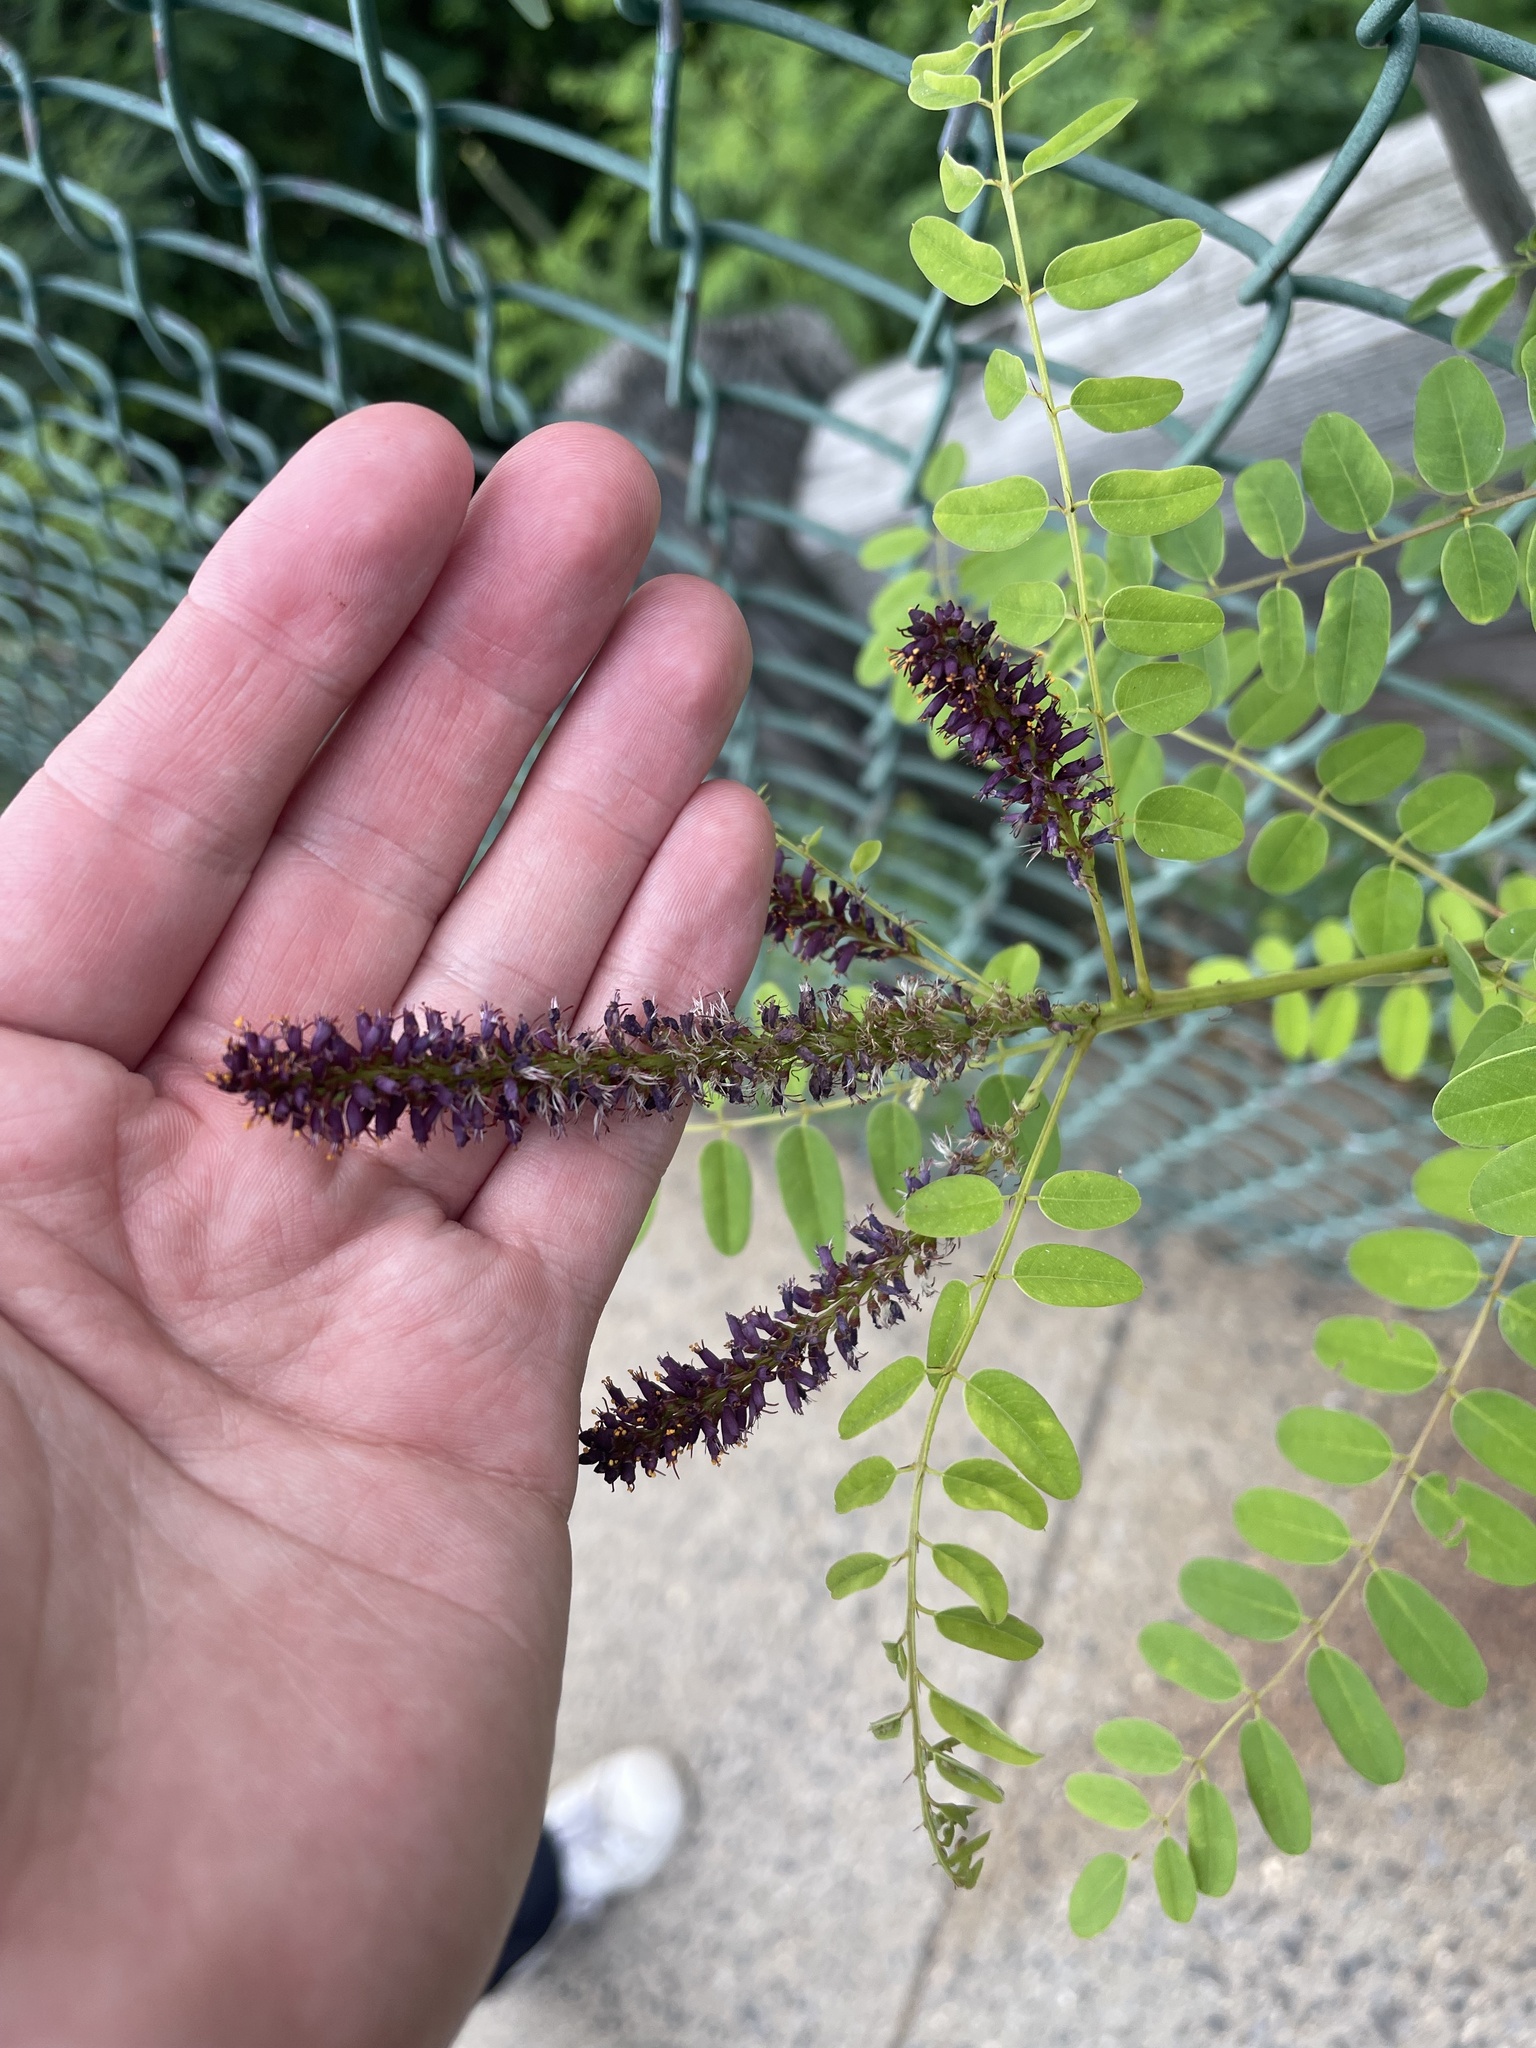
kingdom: Plantae
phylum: Tracheophyta
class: Magnoliopsida
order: Fabales
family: Fabaceae
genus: Amorpha
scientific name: Amorpha fruticosa
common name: False indigo
